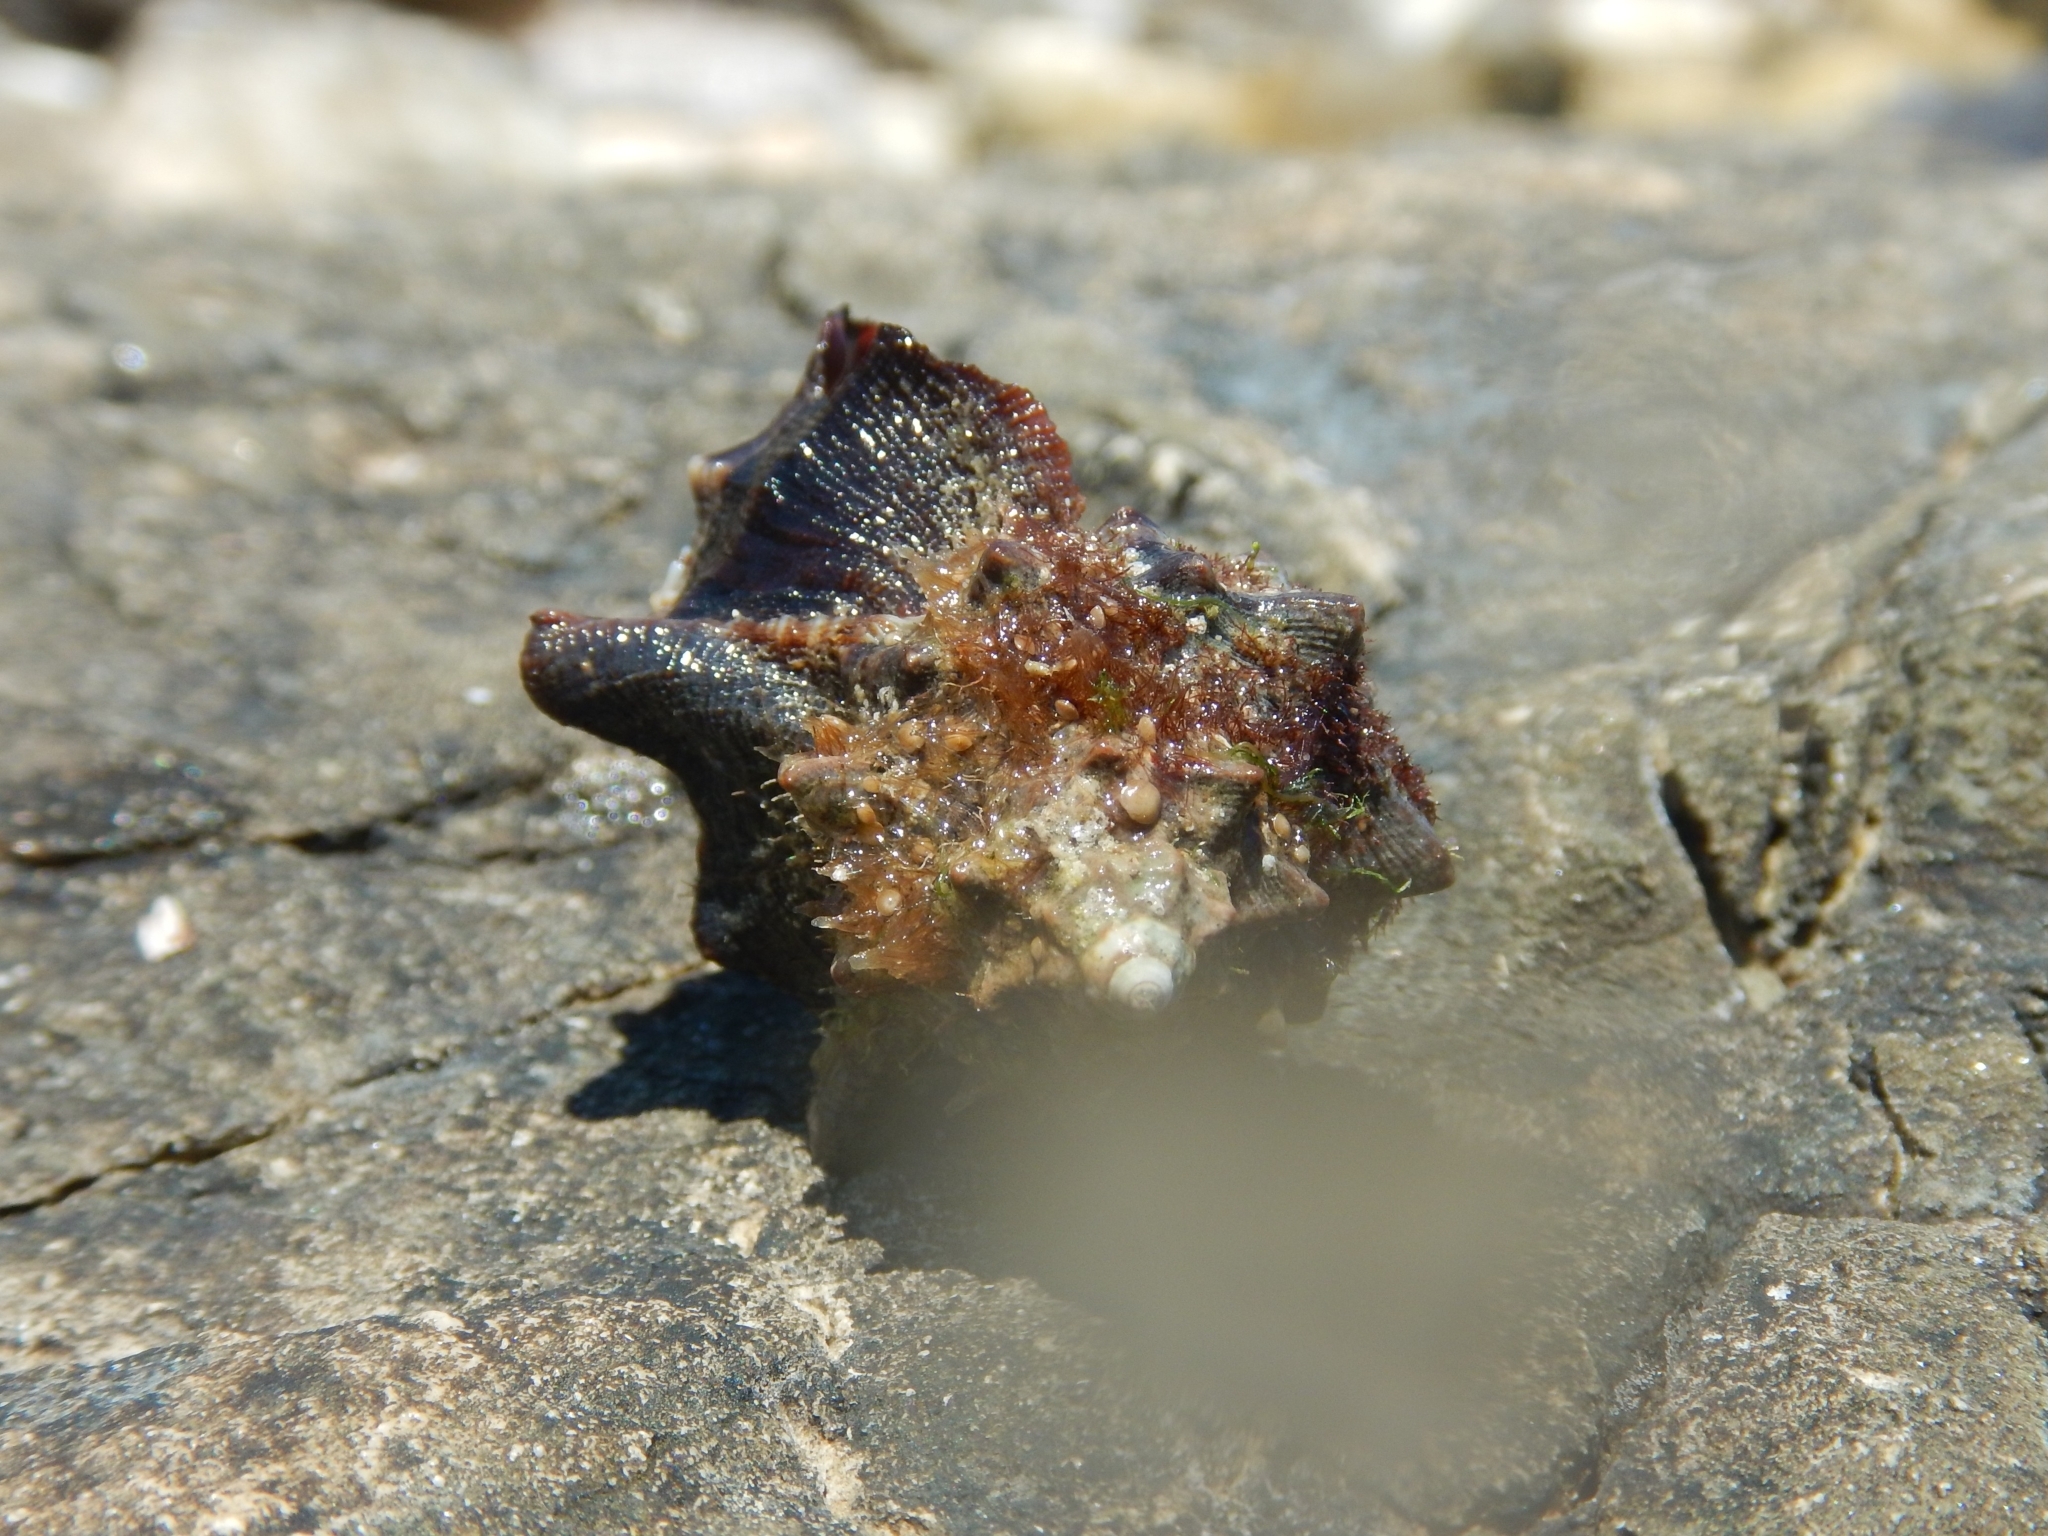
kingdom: Animalia
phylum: Mollusca
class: Gastropoda
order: Neogastropoda
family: Muricidae
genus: Hexaplex
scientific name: Hexaplex trunculus
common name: Banded dye-murex
